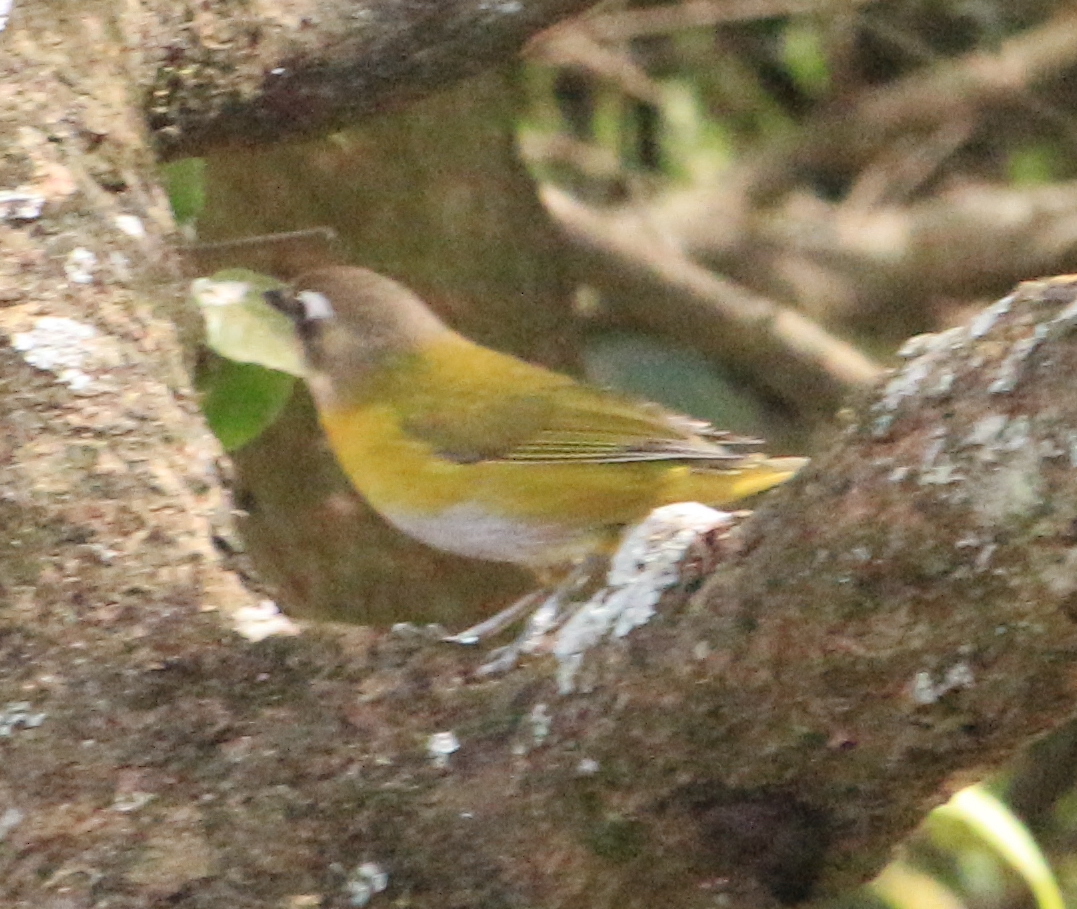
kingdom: Animalia
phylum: Chordata
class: Aves
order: Passeriformes
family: Passerellidae
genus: Chlorospingus
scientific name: Chlorospingus flavopectus
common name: Common chlorospingus
